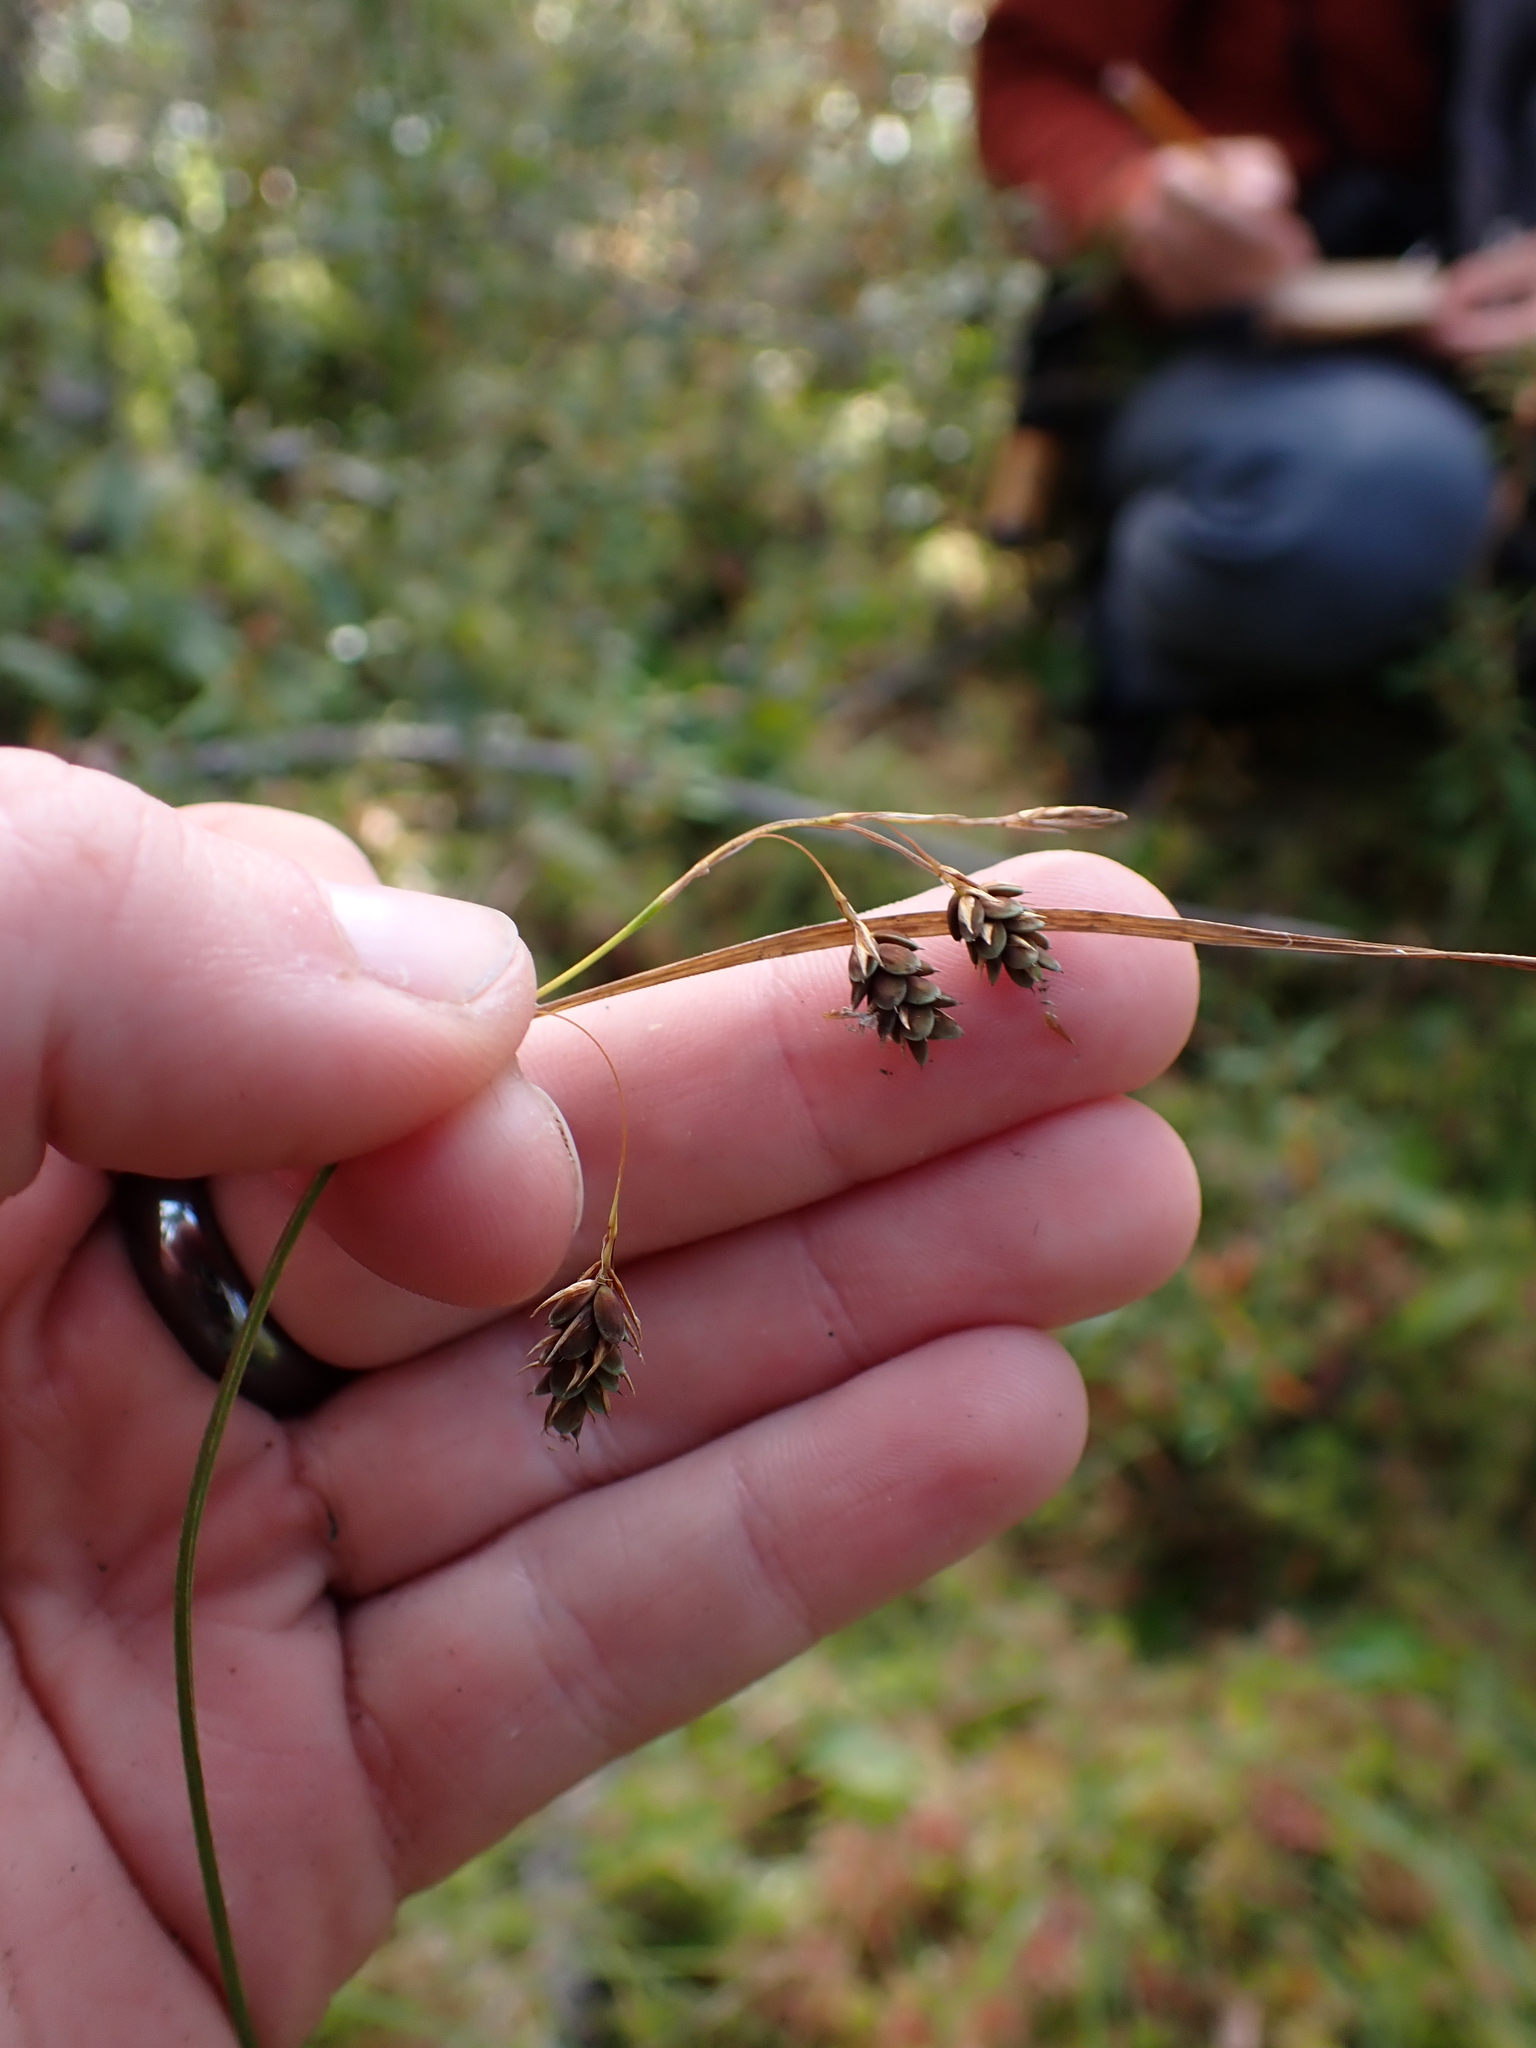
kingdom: Plantae
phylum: Tracheophyta
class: Liliopsida
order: Poales
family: Cyperaceae
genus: Carex
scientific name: Carex magellanica
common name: Bog sedge
